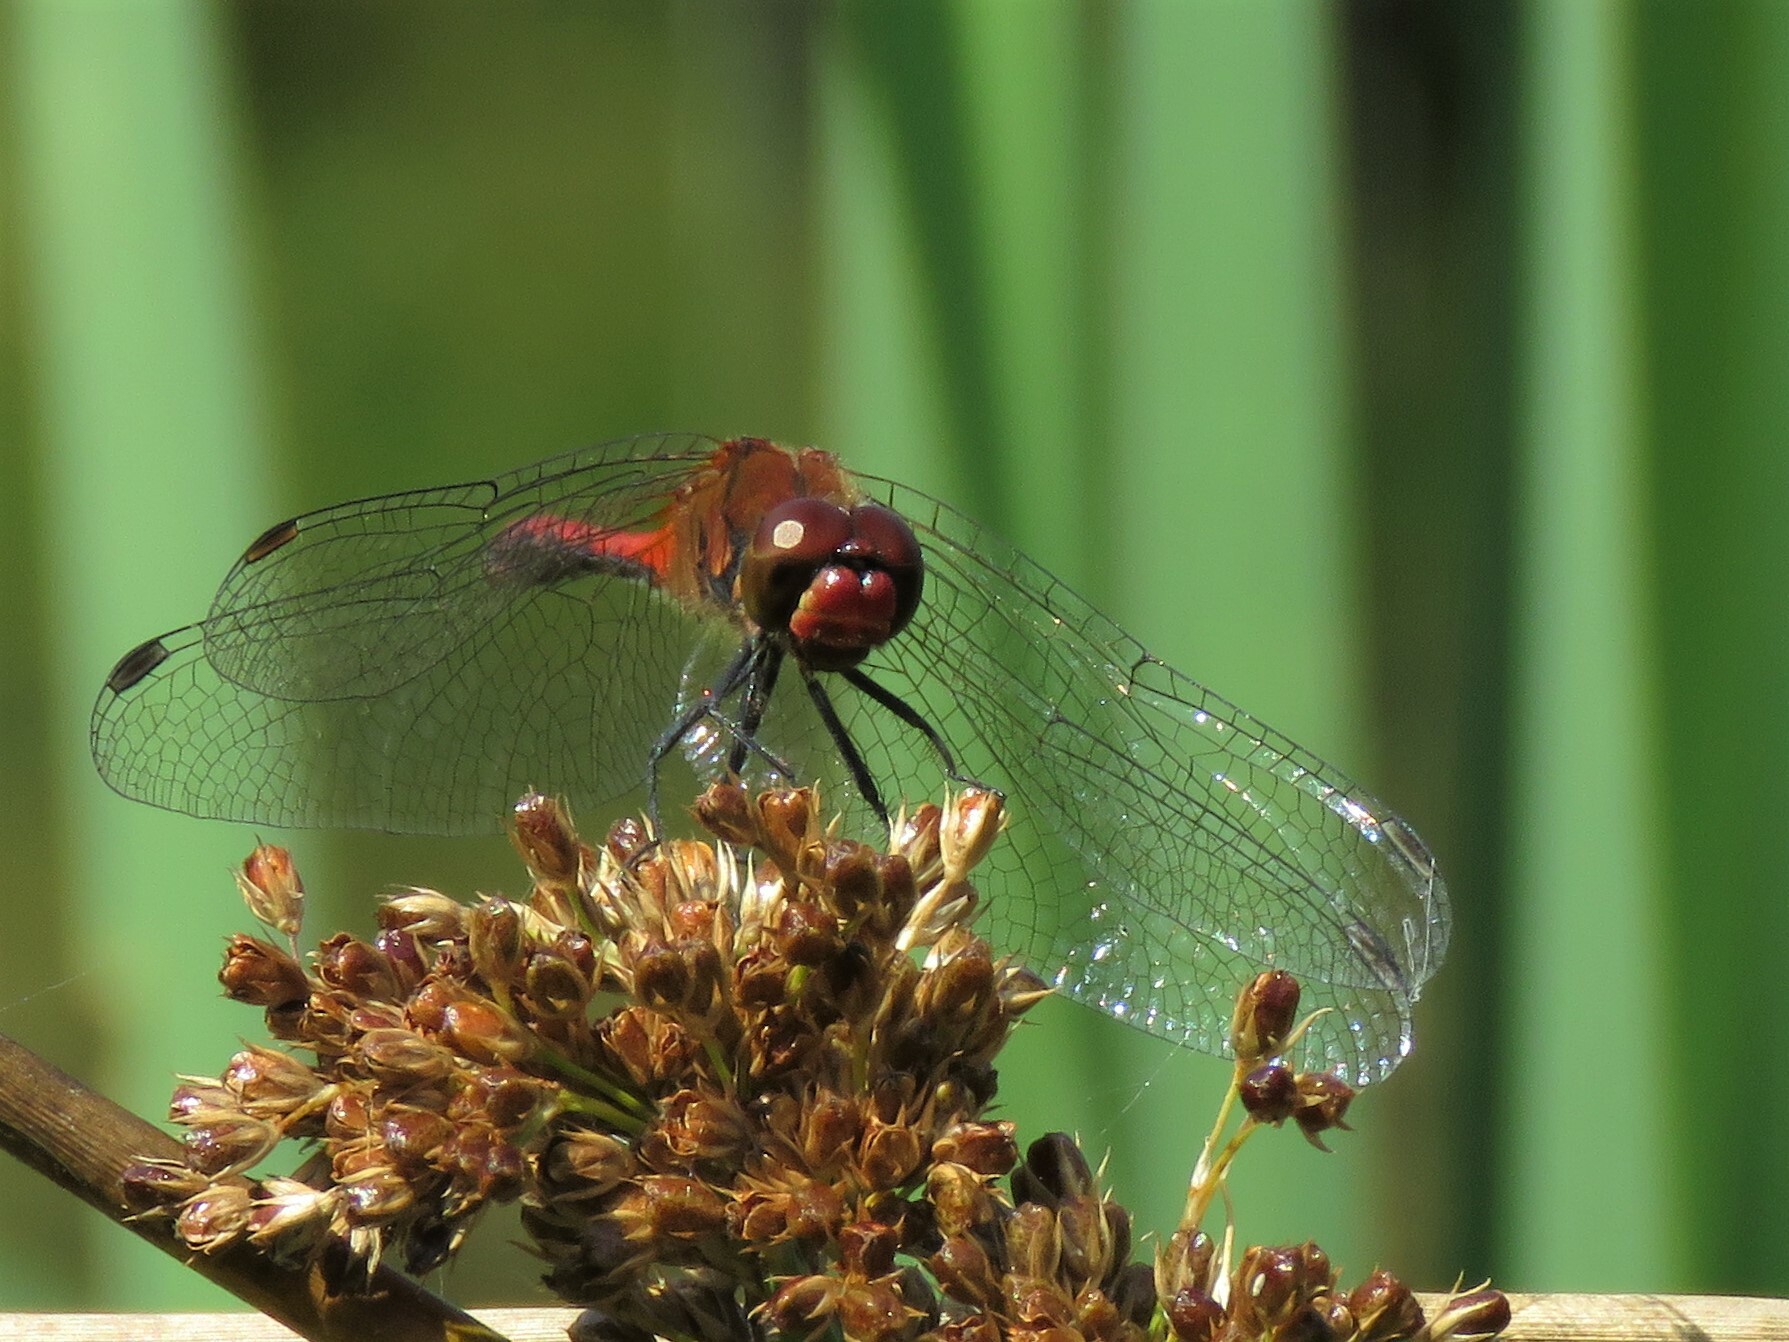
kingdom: Animalia
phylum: Arthropoda
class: Insecta
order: Odonata
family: Libellulidae
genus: Sympetrum
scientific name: Sympetrum sanguineum
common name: Ruddy darter
